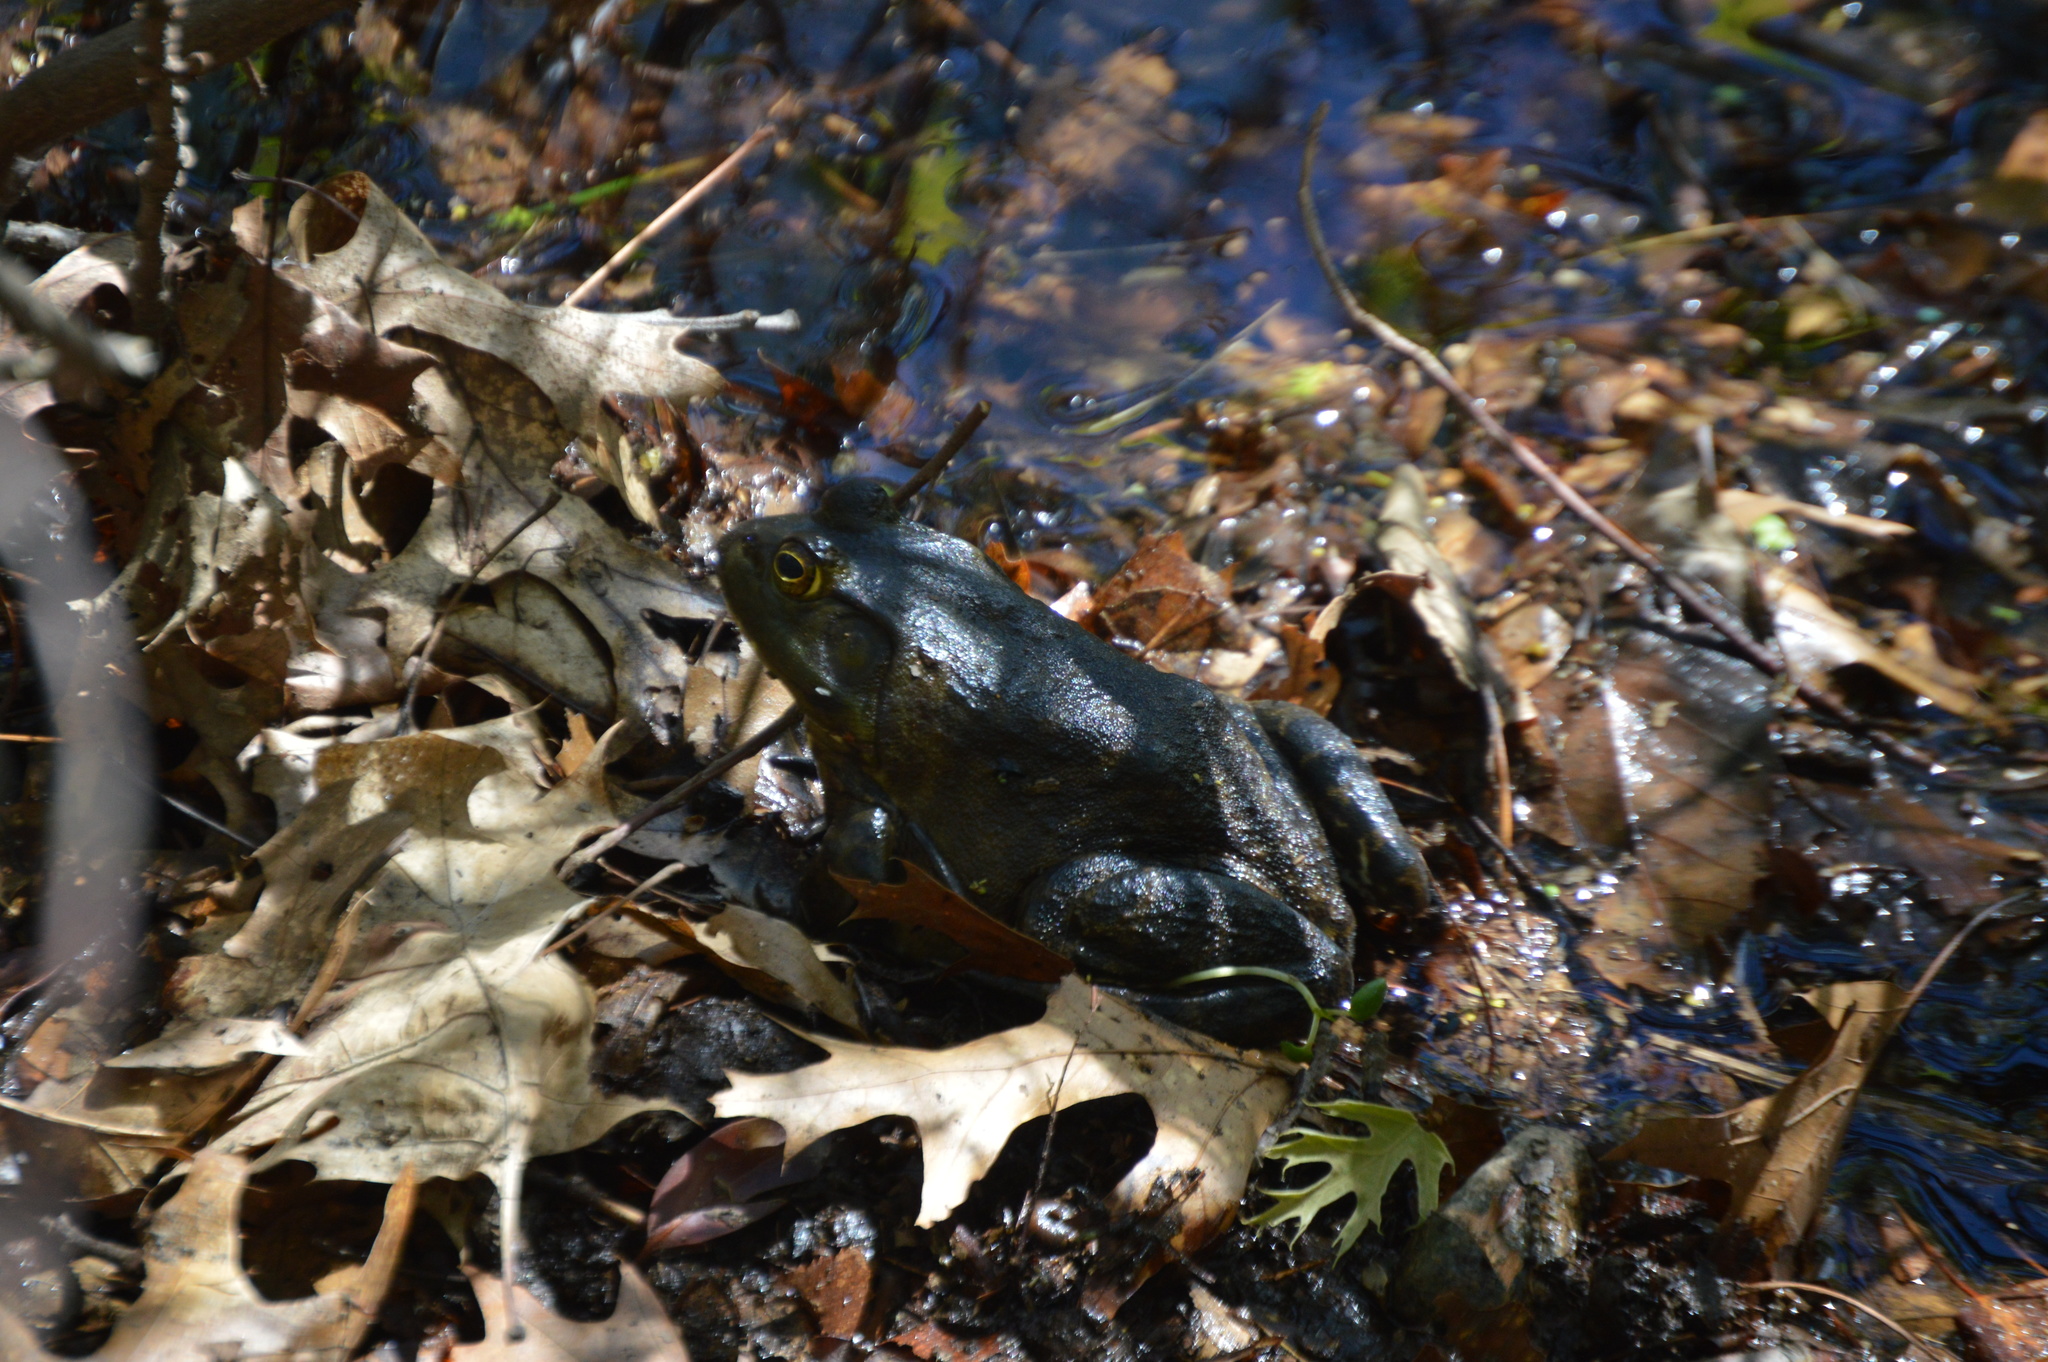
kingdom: Animalia
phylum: Chordata
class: Amphibia
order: Anura
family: Ranidae
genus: Lithobates
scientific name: Lithobates catesbeianus
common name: American bullfrog
